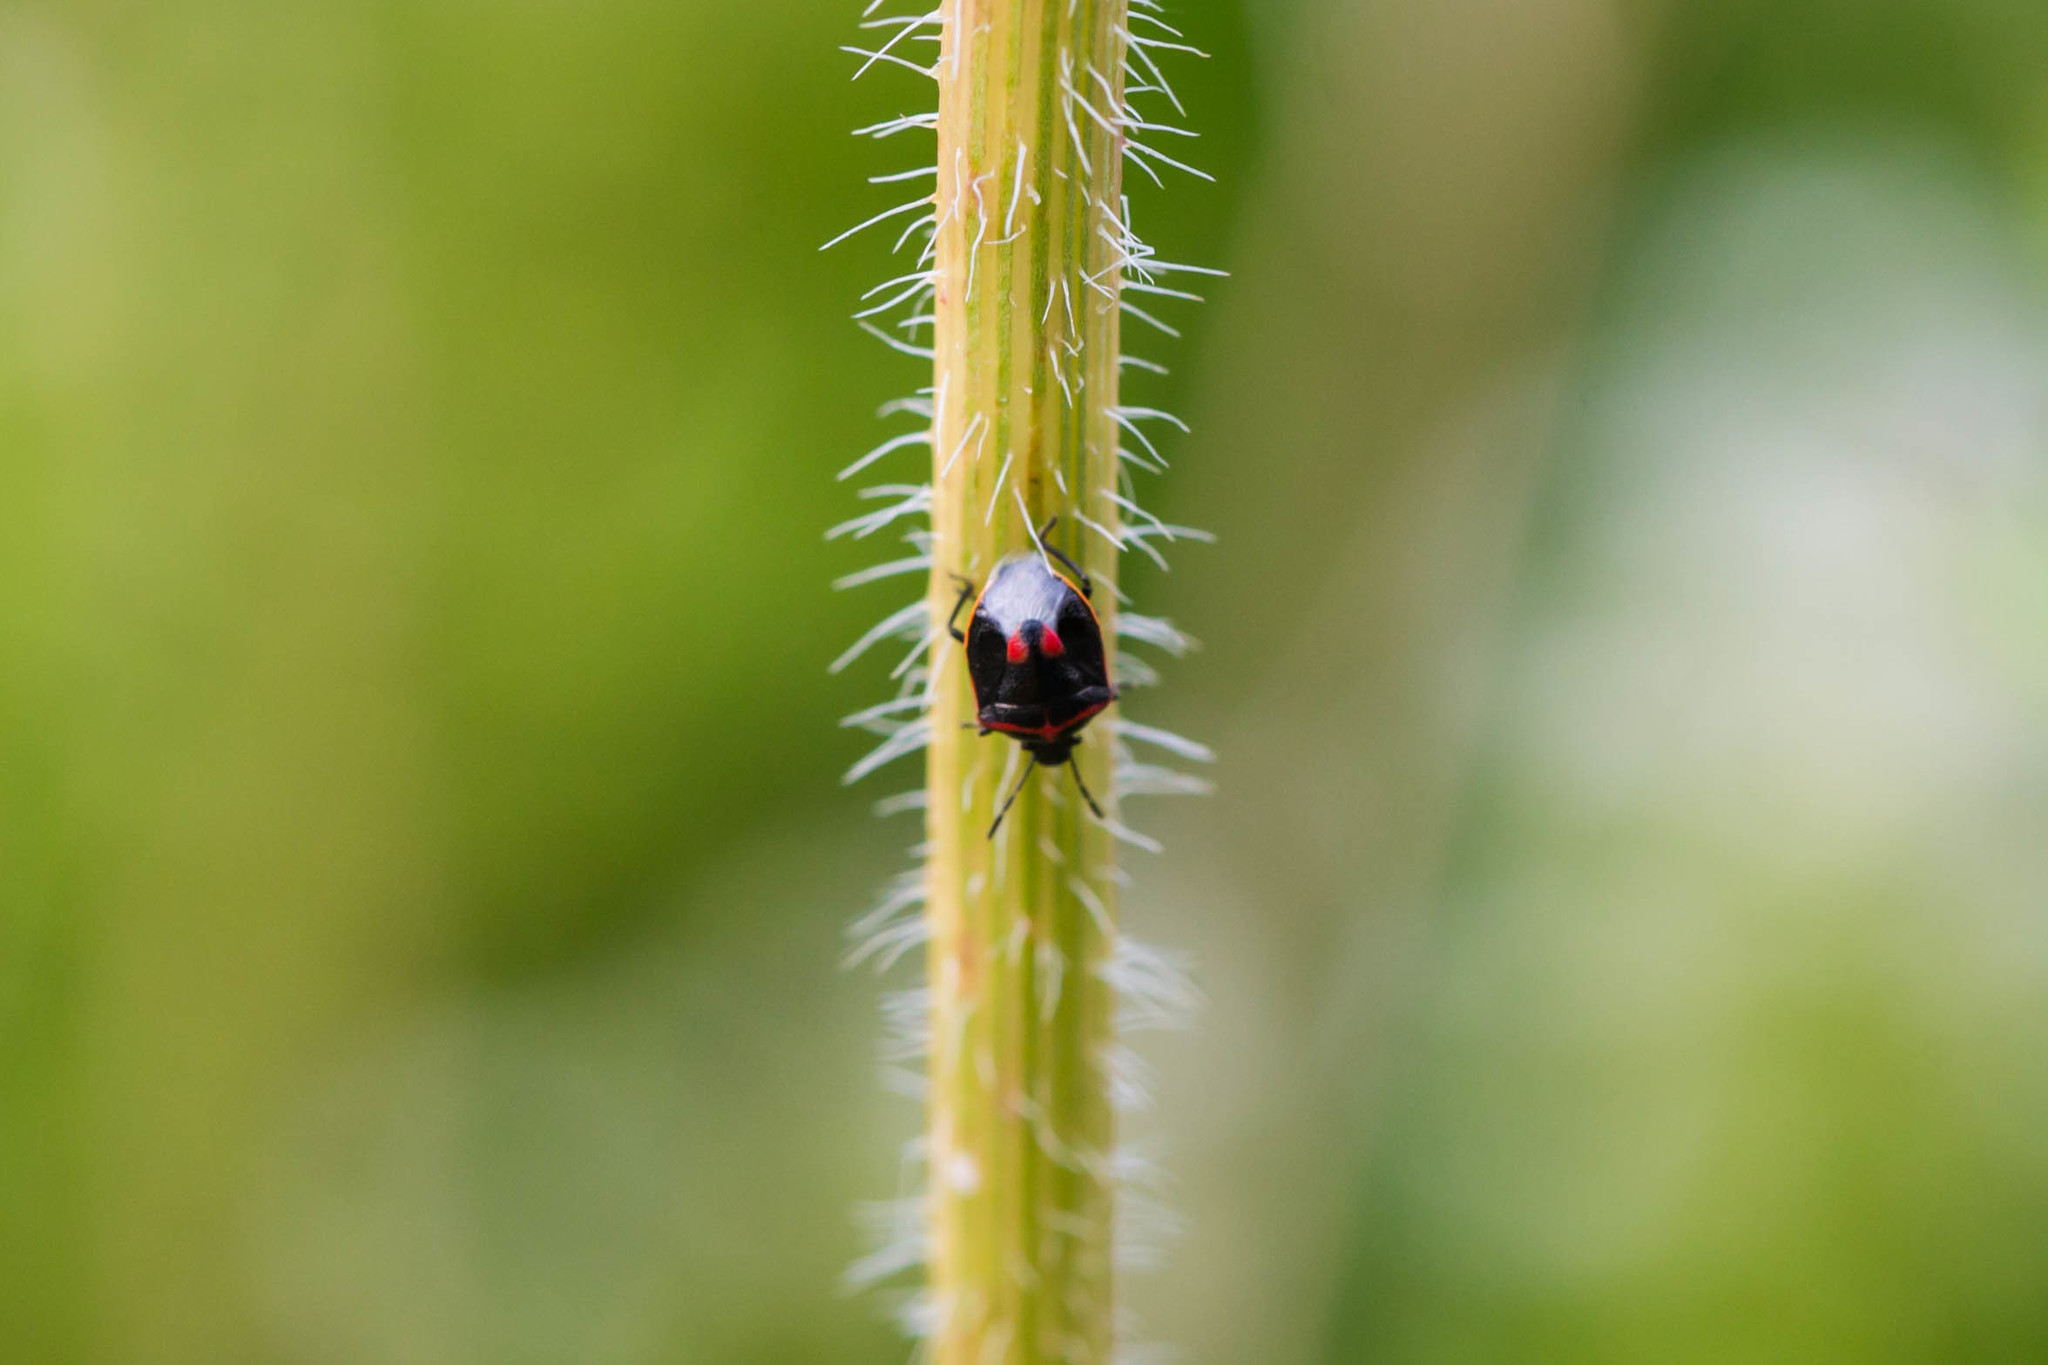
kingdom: Animalia
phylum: Arthropoda
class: Insecta
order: Hemiptera
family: Pentatomidae
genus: Cosmopepla
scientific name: Cosmopepla lintneriana
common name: Twice-stabbed stink bug
